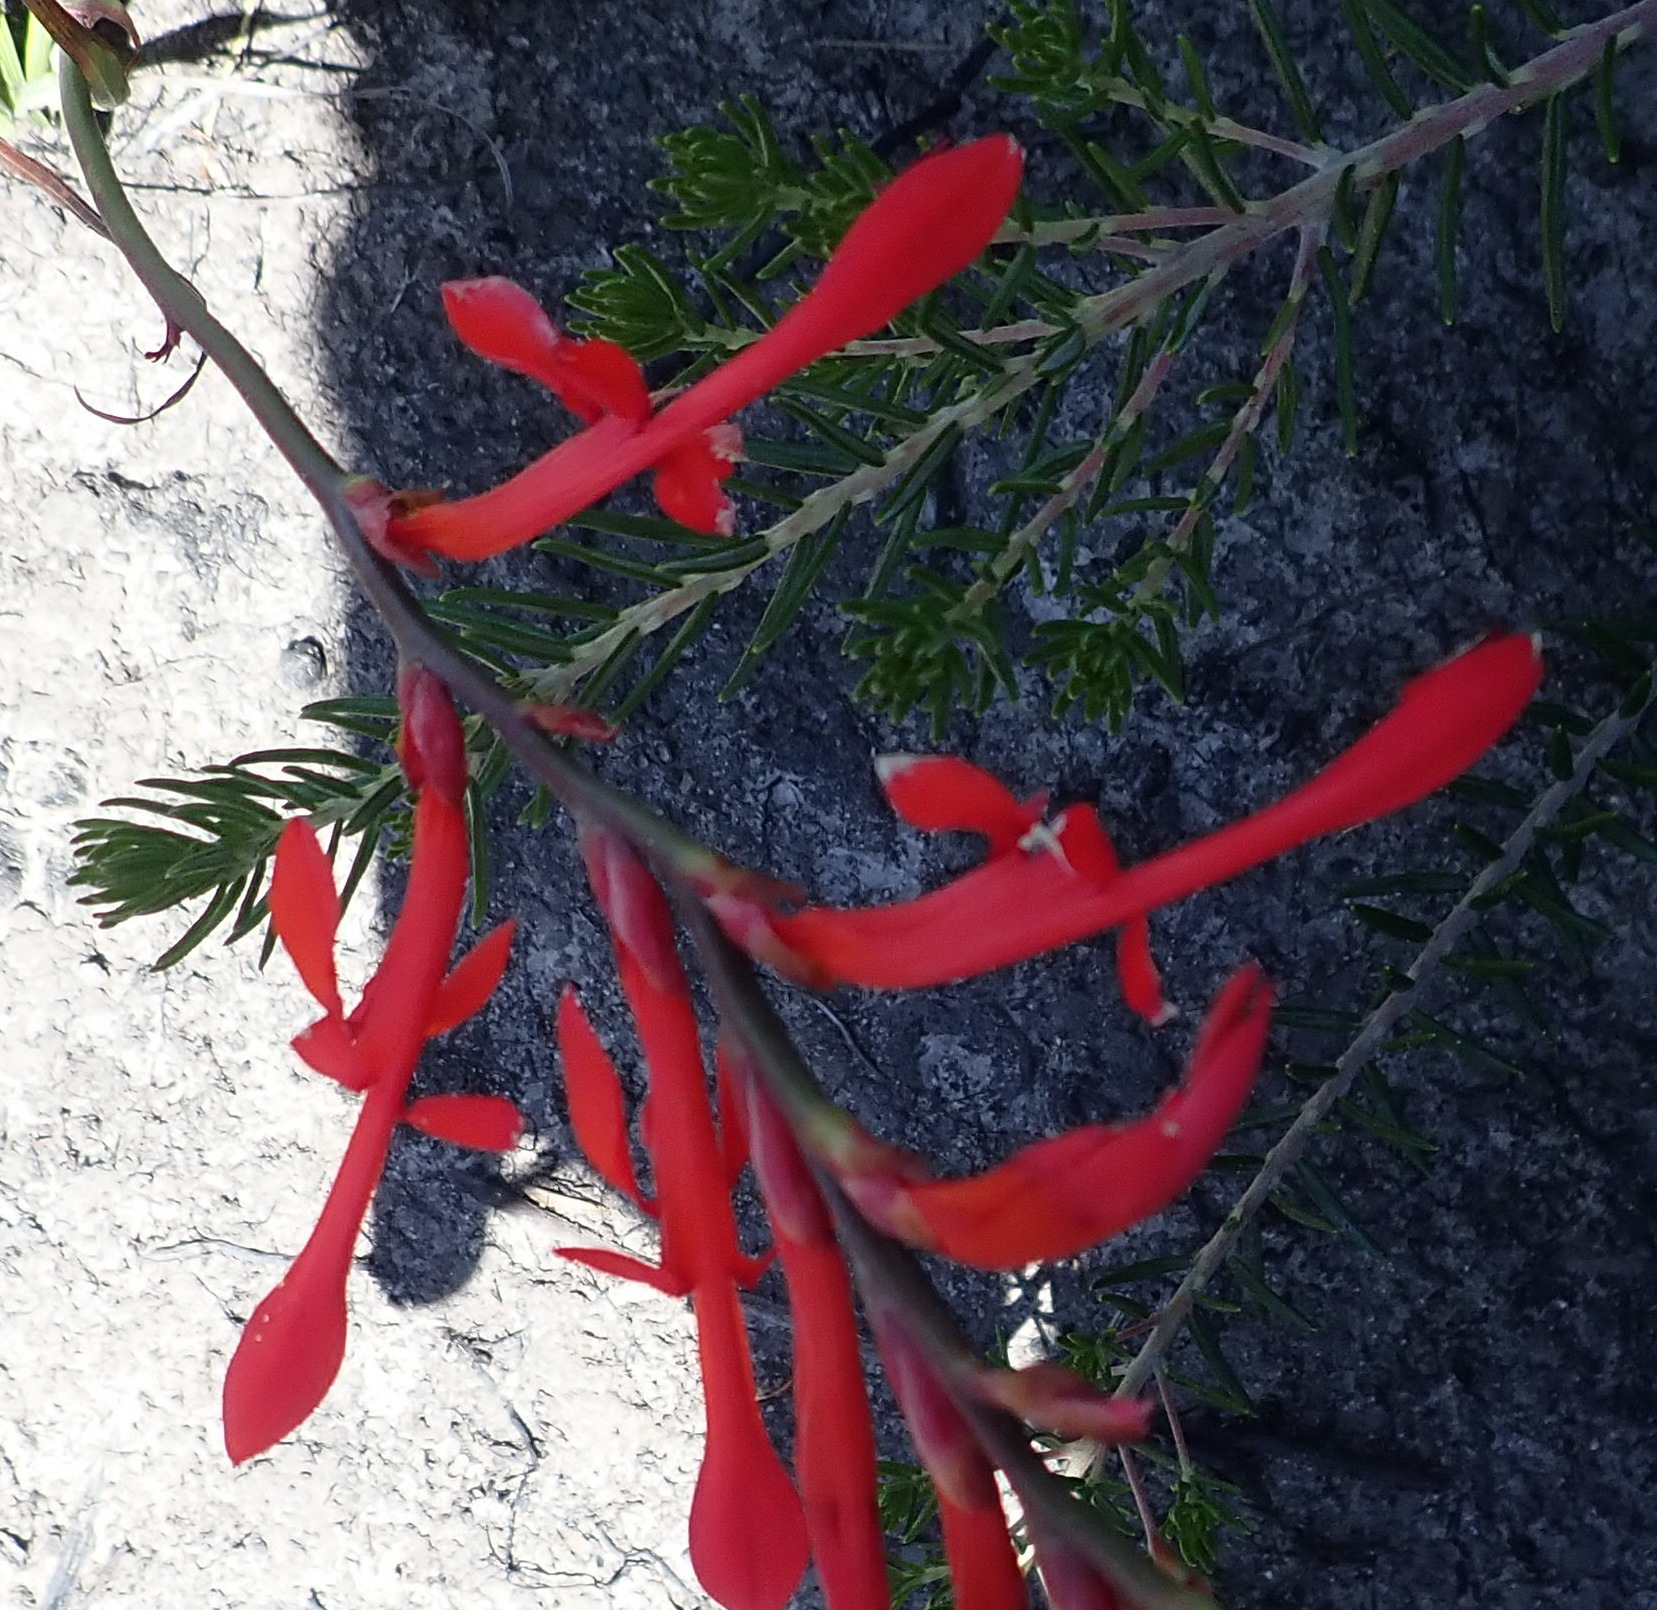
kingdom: Plantae
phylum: Tracheophyta
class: Liliopsida
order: Asparagales
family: Iridaceae
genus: Tritoniopsis
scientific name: Tritoniopsis caffra
